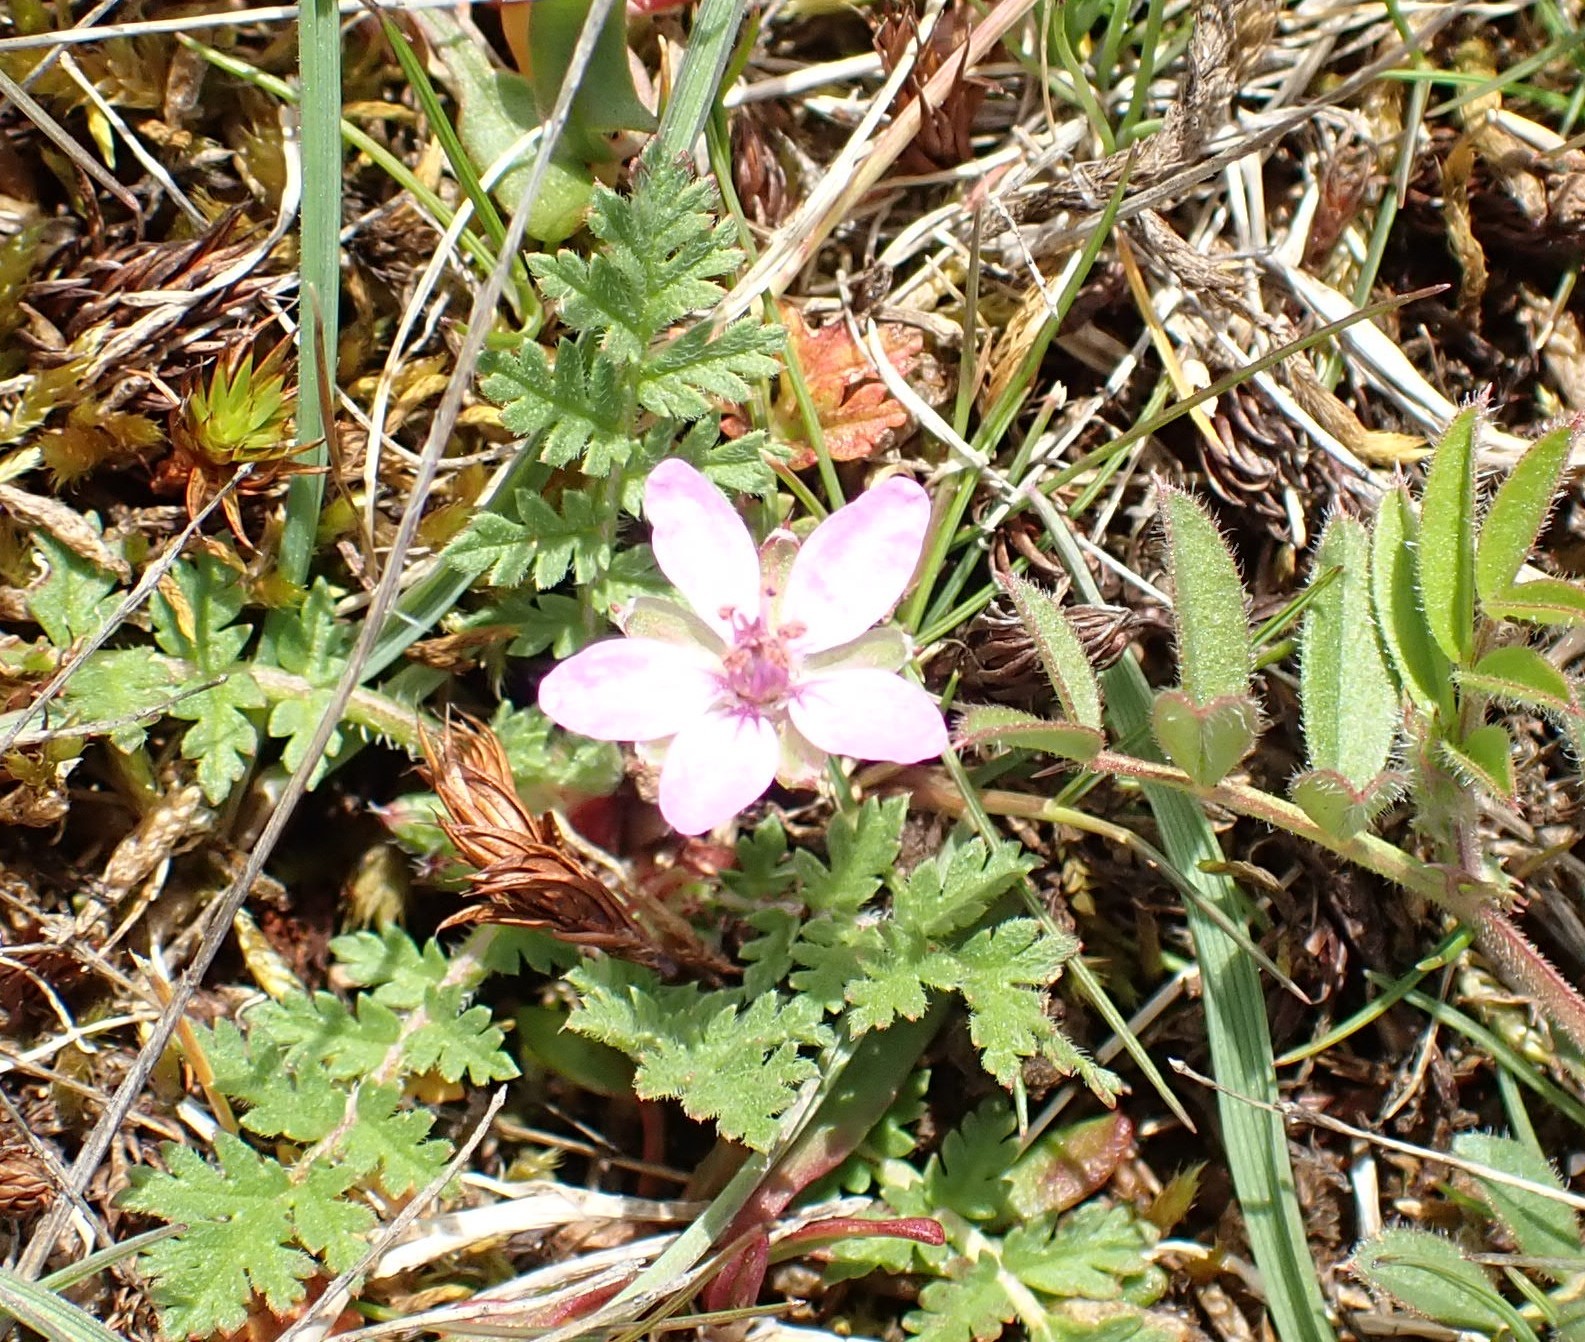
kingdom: Plantae
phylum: Tracheophyta
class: Magnoliopsida
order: Geraniales
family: Geraniaceae
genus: Erodium
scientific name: Erodium cicutarium
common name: Common stork's-bill
